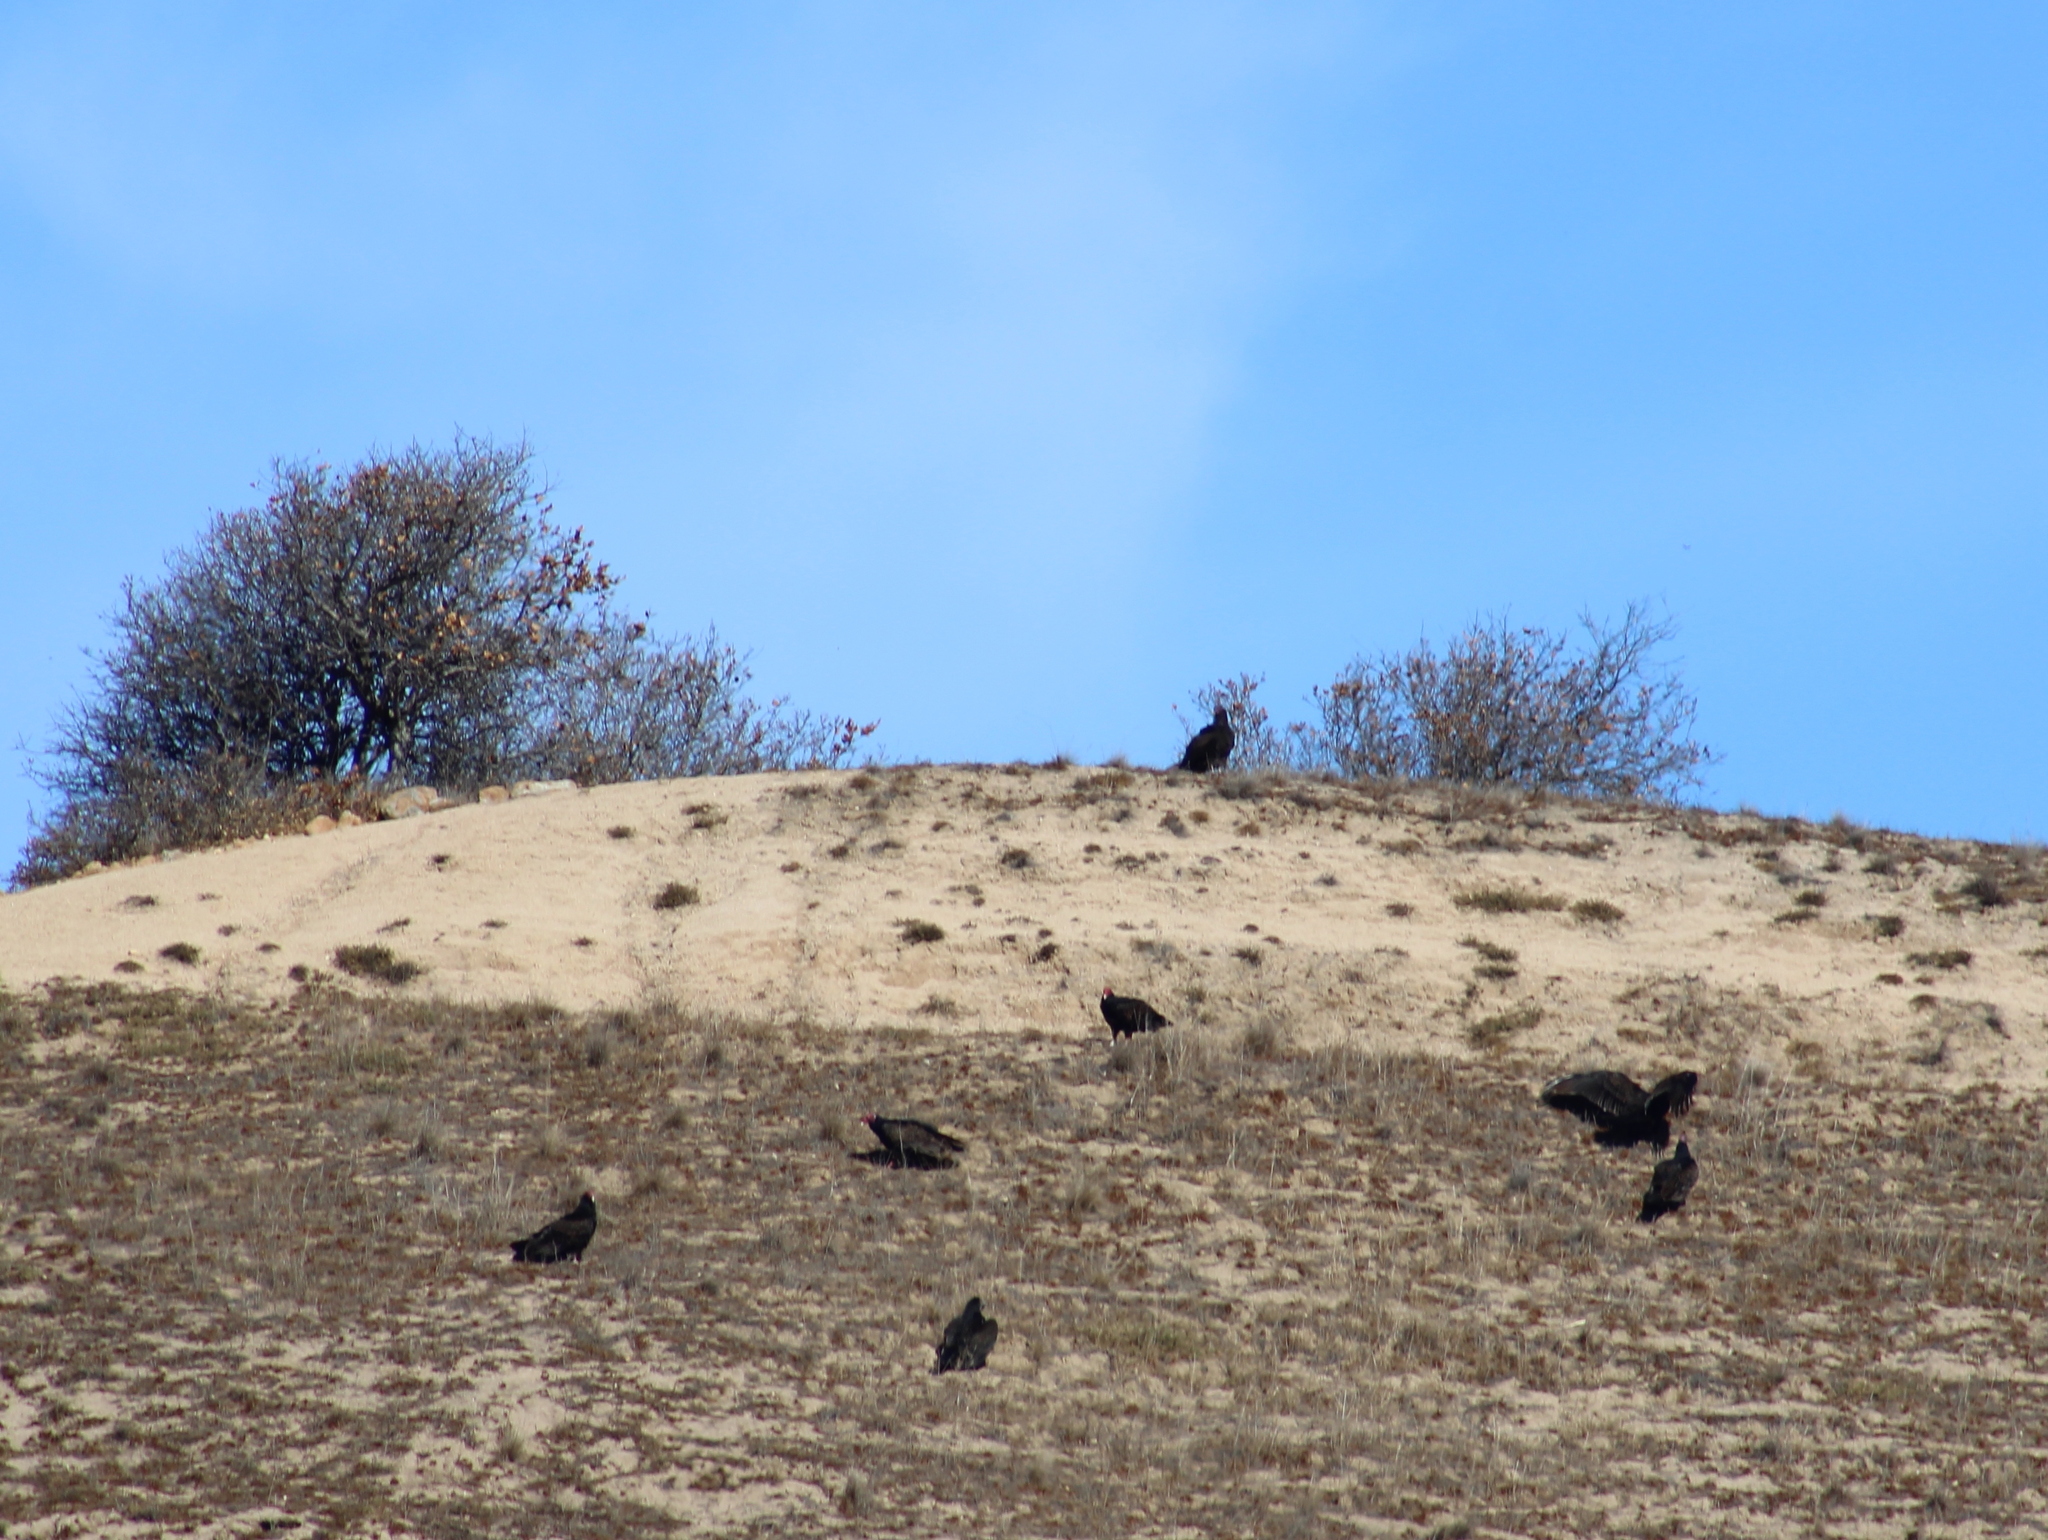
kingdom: Animalia
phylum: Chordata
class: Aves
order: Accipitriformes
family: Cathartidae
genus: Cathartes
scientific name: Cathartes aura
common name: Turkey vulture
